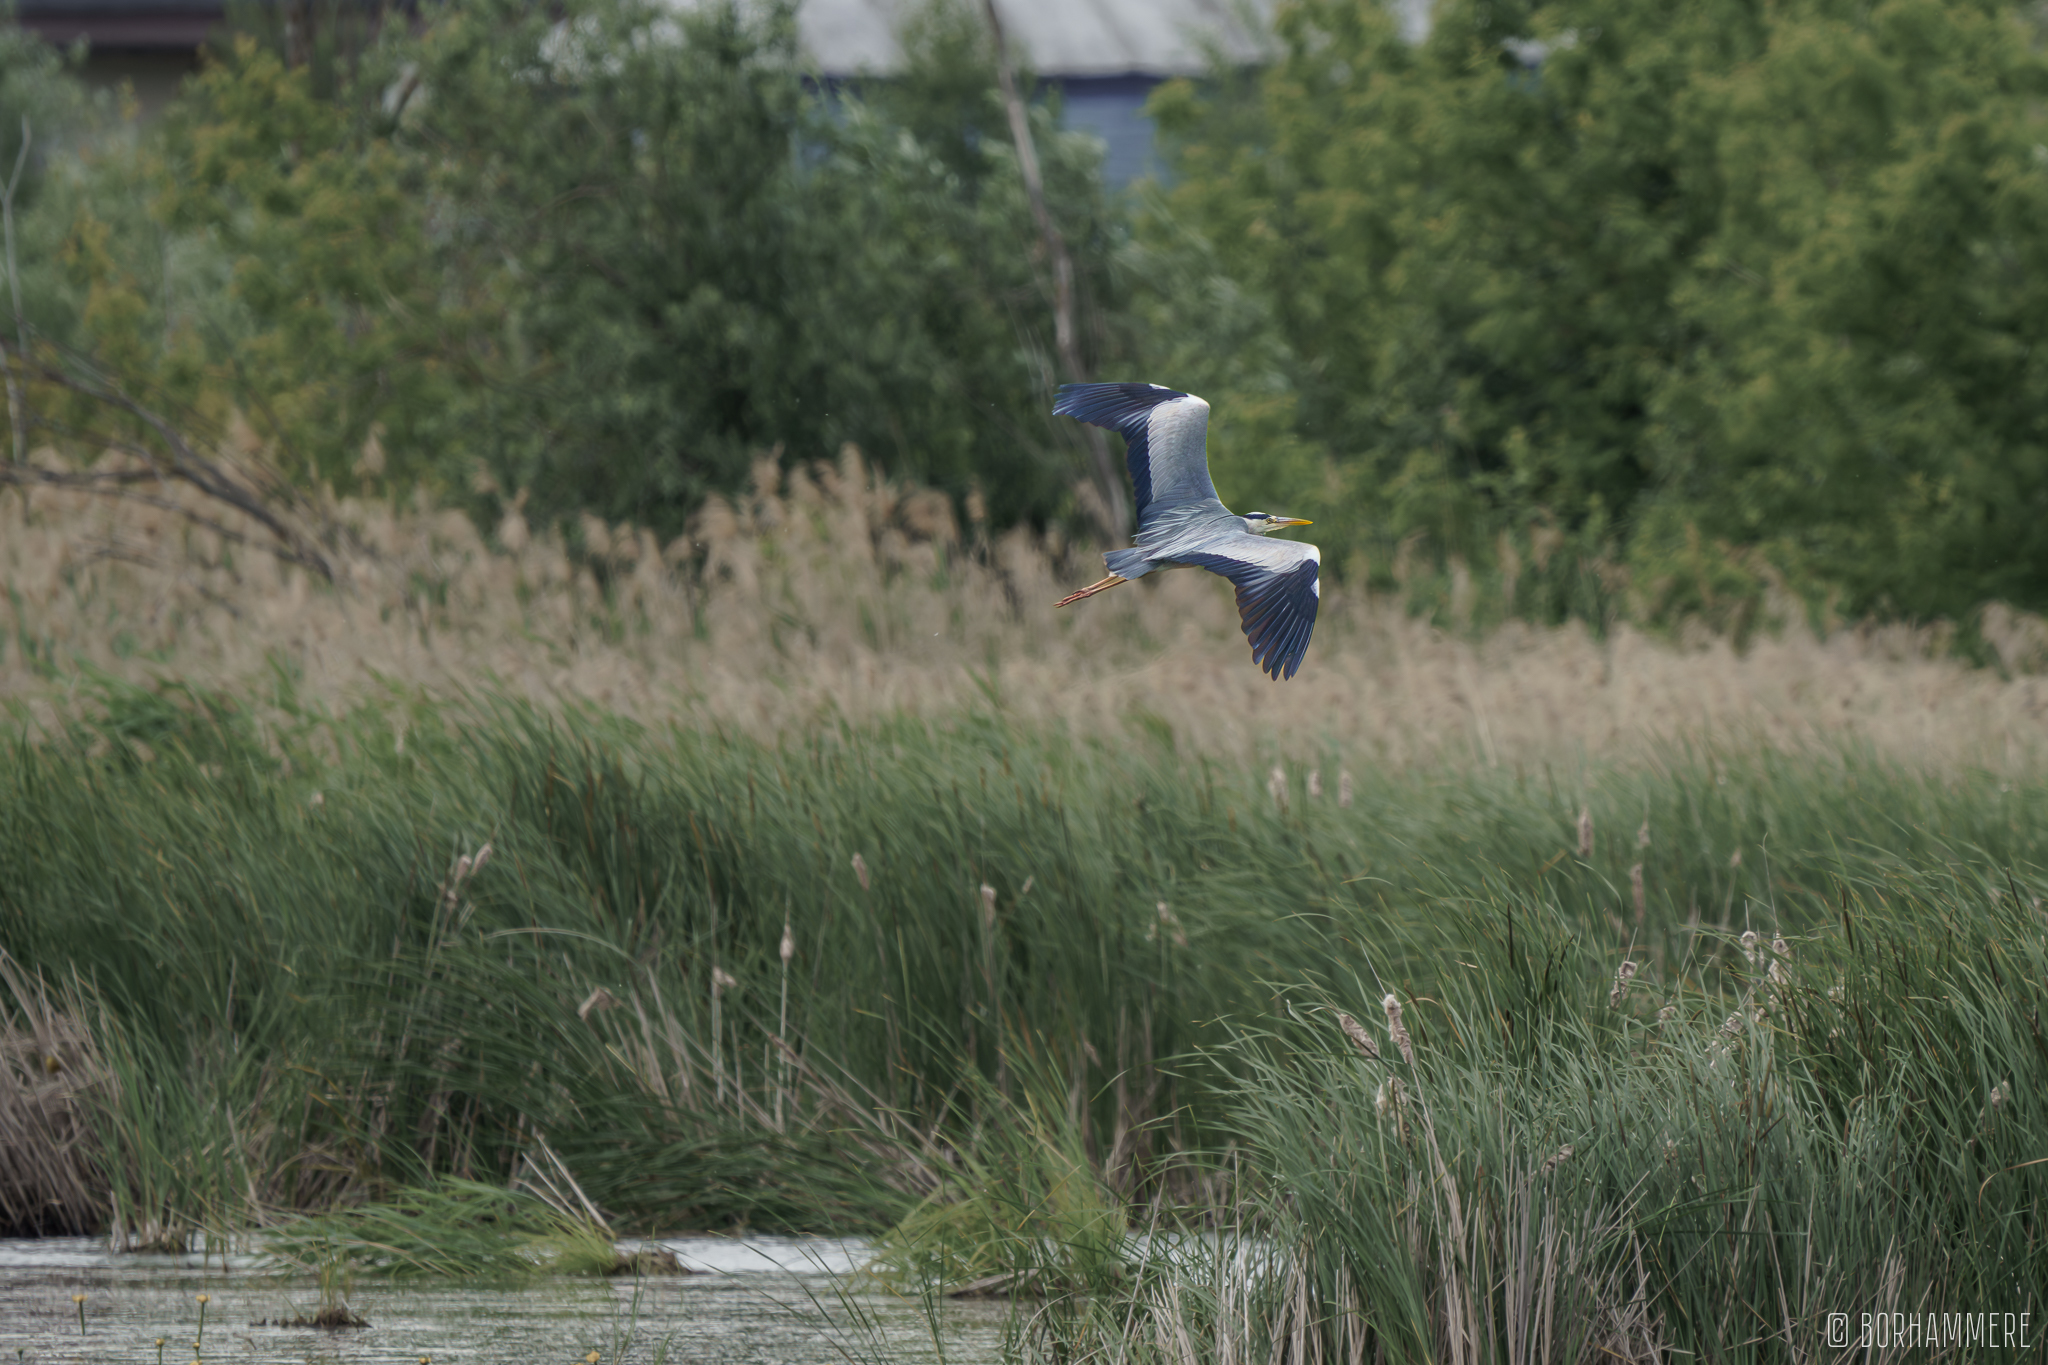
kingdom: Animalia
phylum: Chordata
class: Aves
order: Pelecaniformes
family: Ardeidae
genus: Ardea
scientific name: Ardea cinerea
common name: Grey heron
